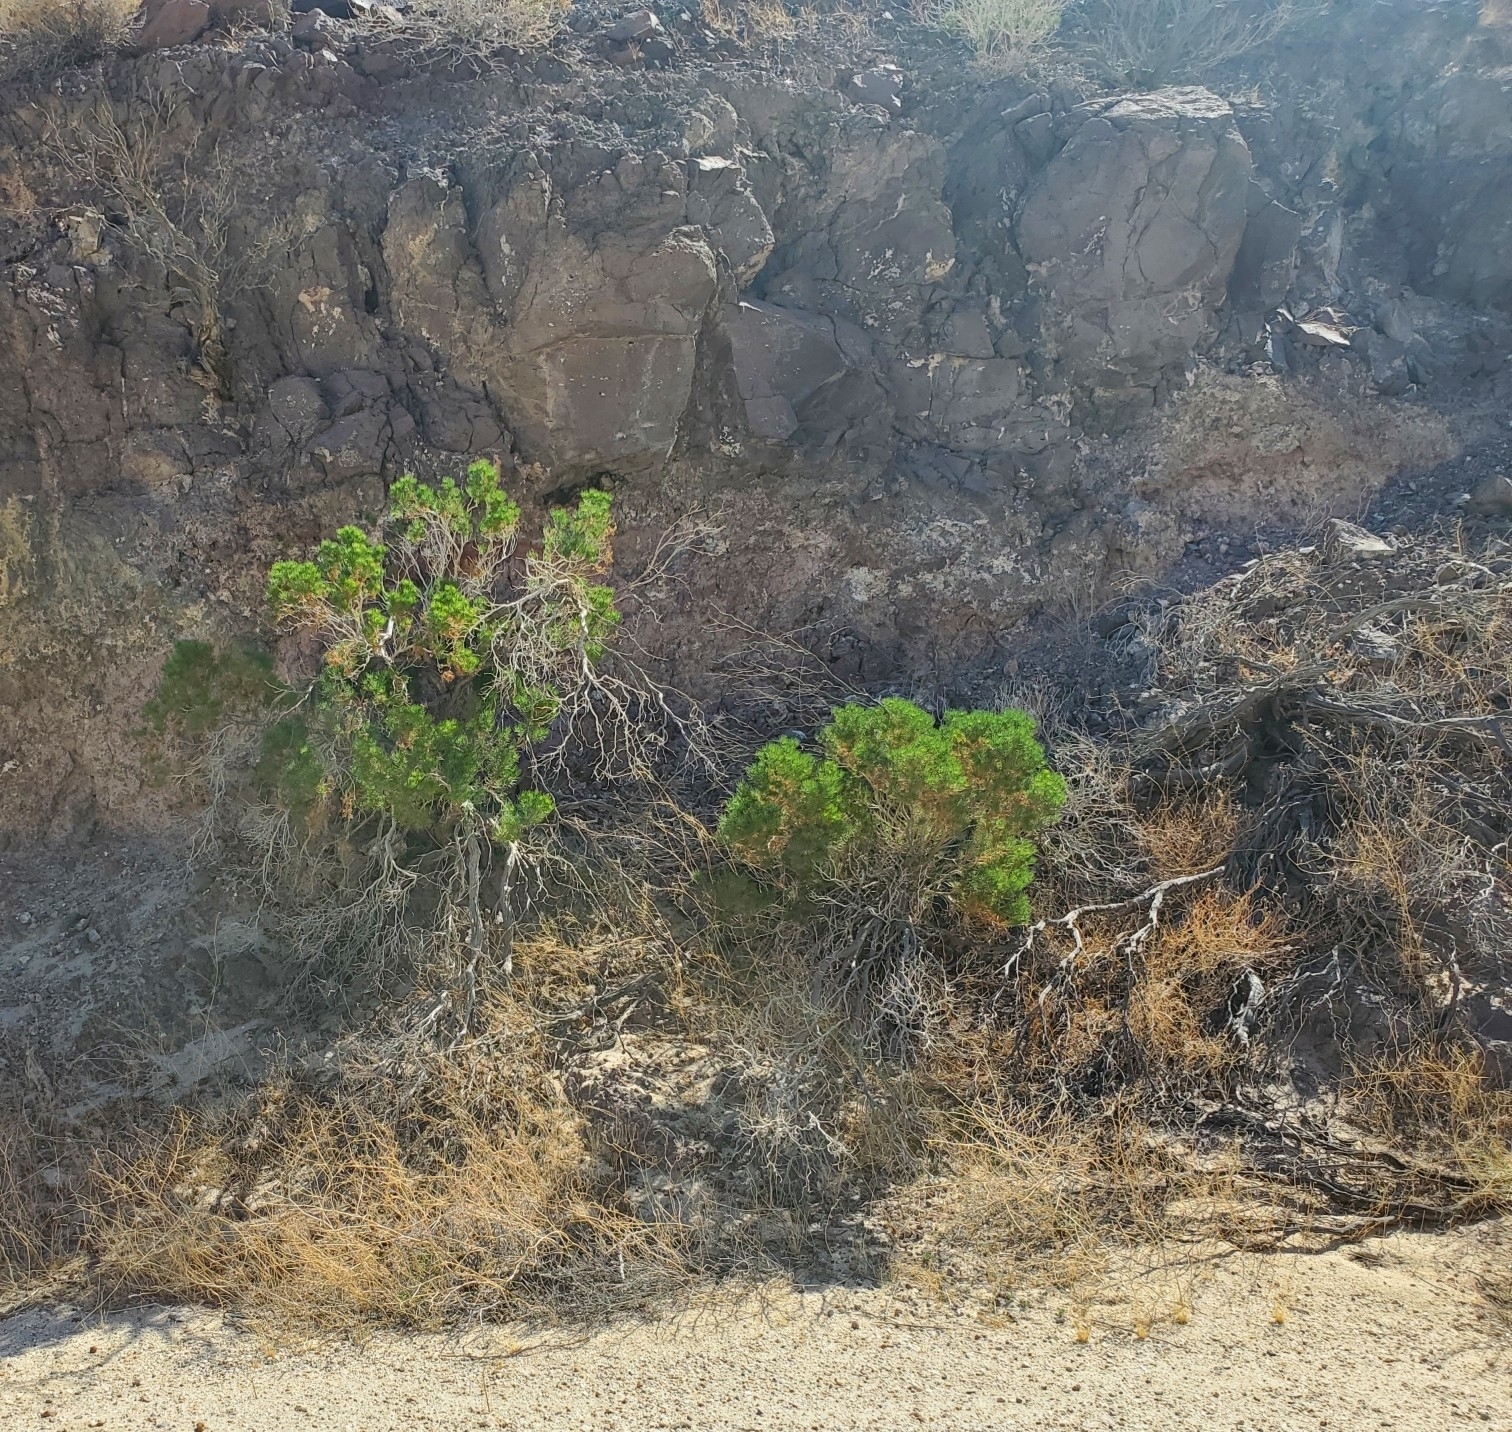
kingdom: Plantae
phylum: Tracheophyta
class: Magnoliopsida
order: Asterales
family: Asteraceae
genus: Peucephyllum
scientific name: Peucephyllum schottii
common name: Pygmy-cedar
